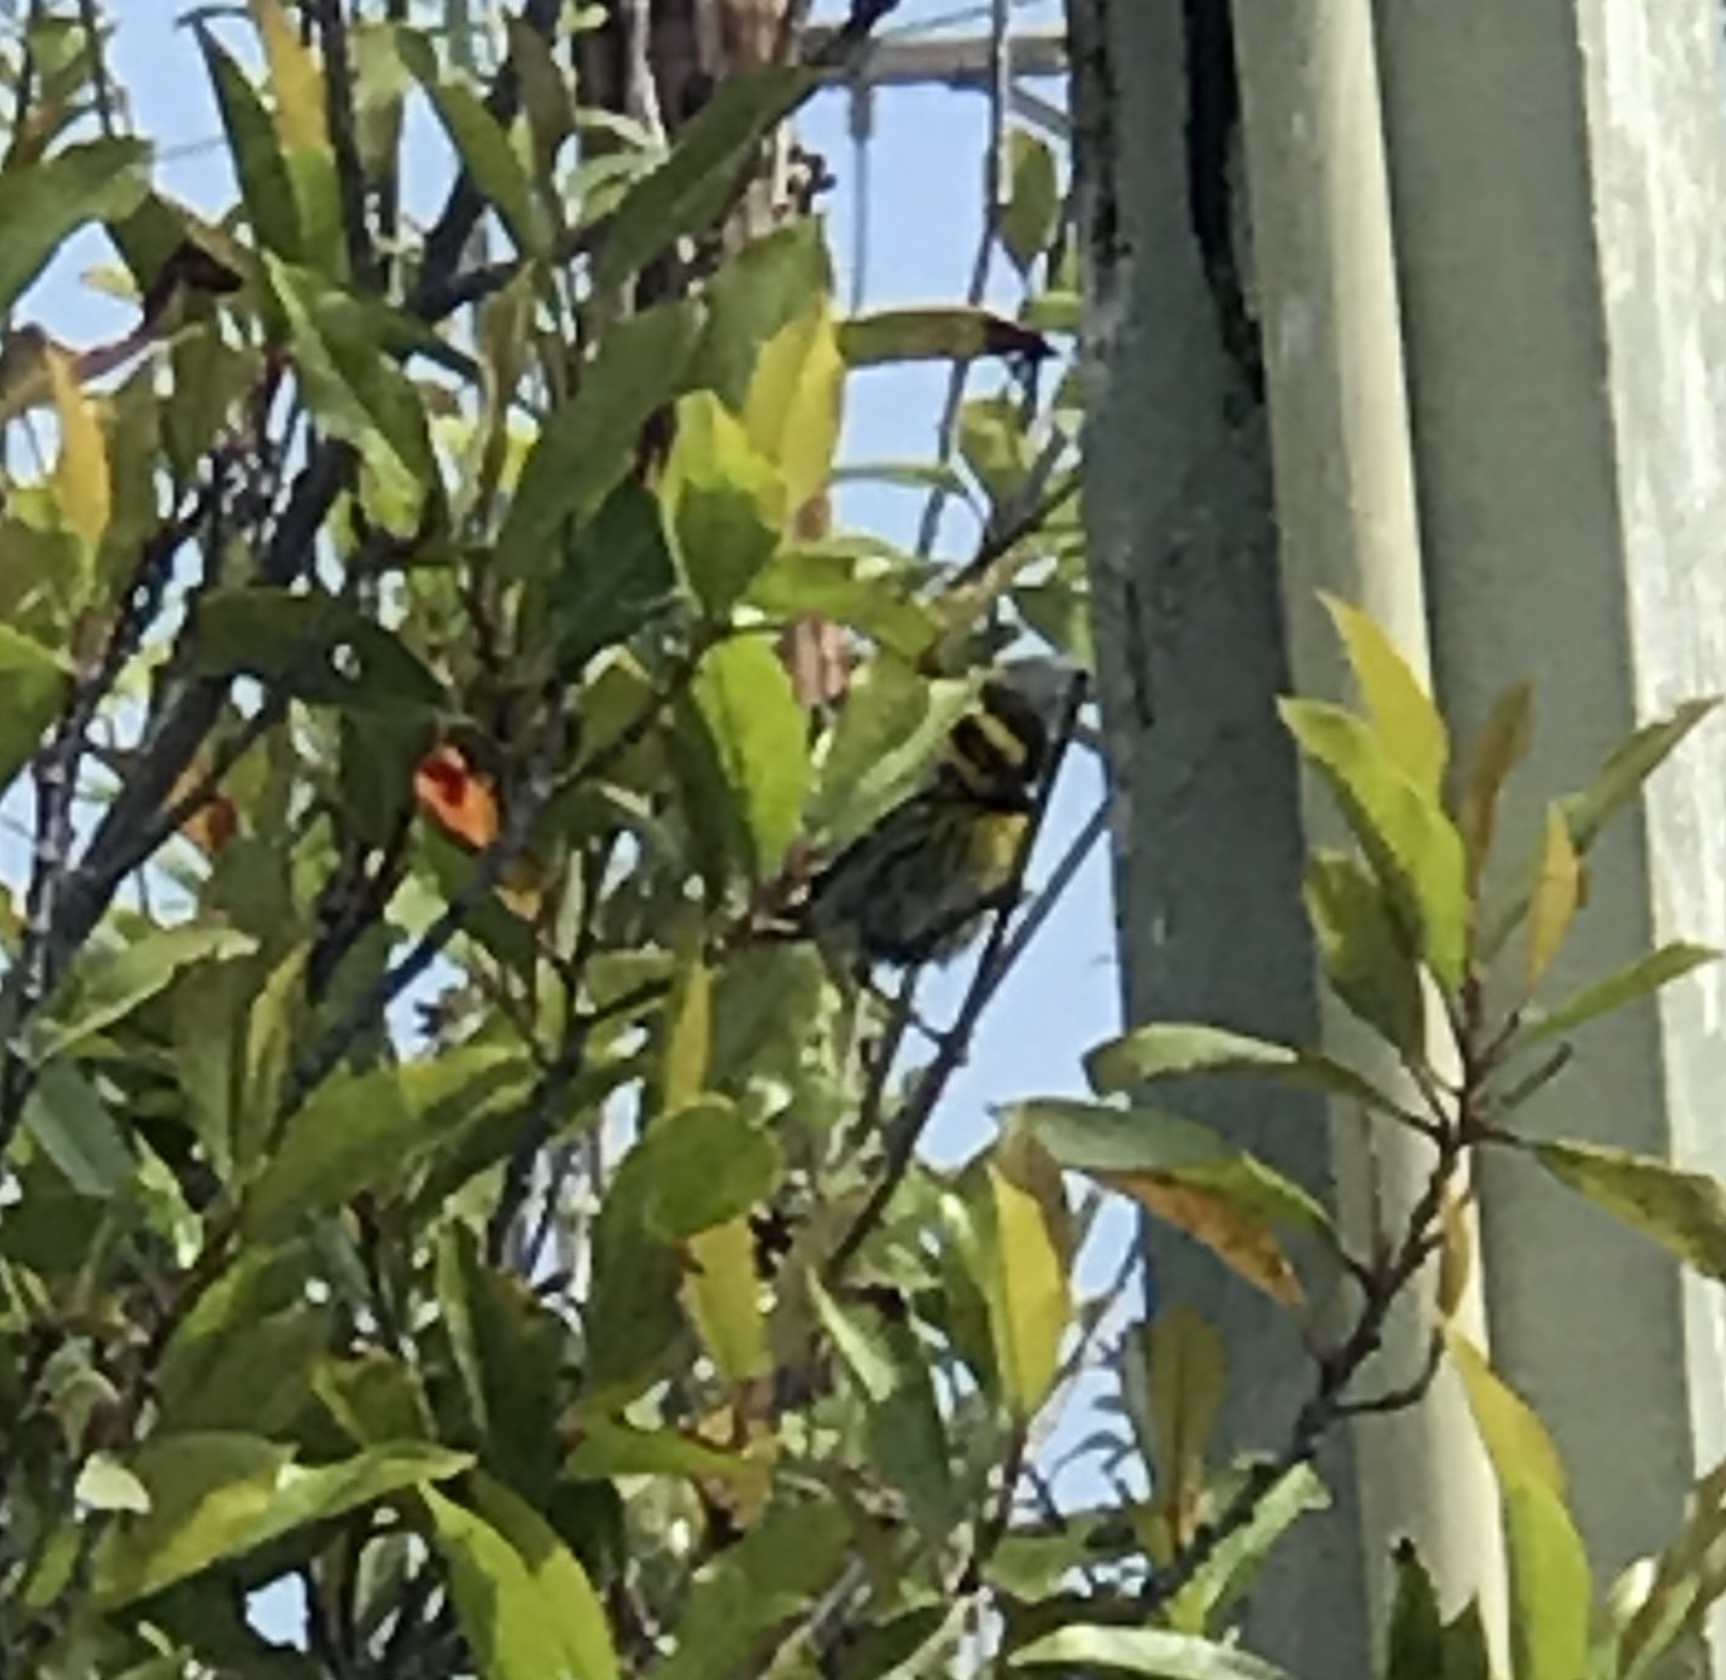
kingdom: Animalia
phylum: Chordata
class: Aves
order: Passeriformes
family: Parulidae
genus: Setophaga
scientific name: Setophaga townsendi
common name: Townsend's warbler
